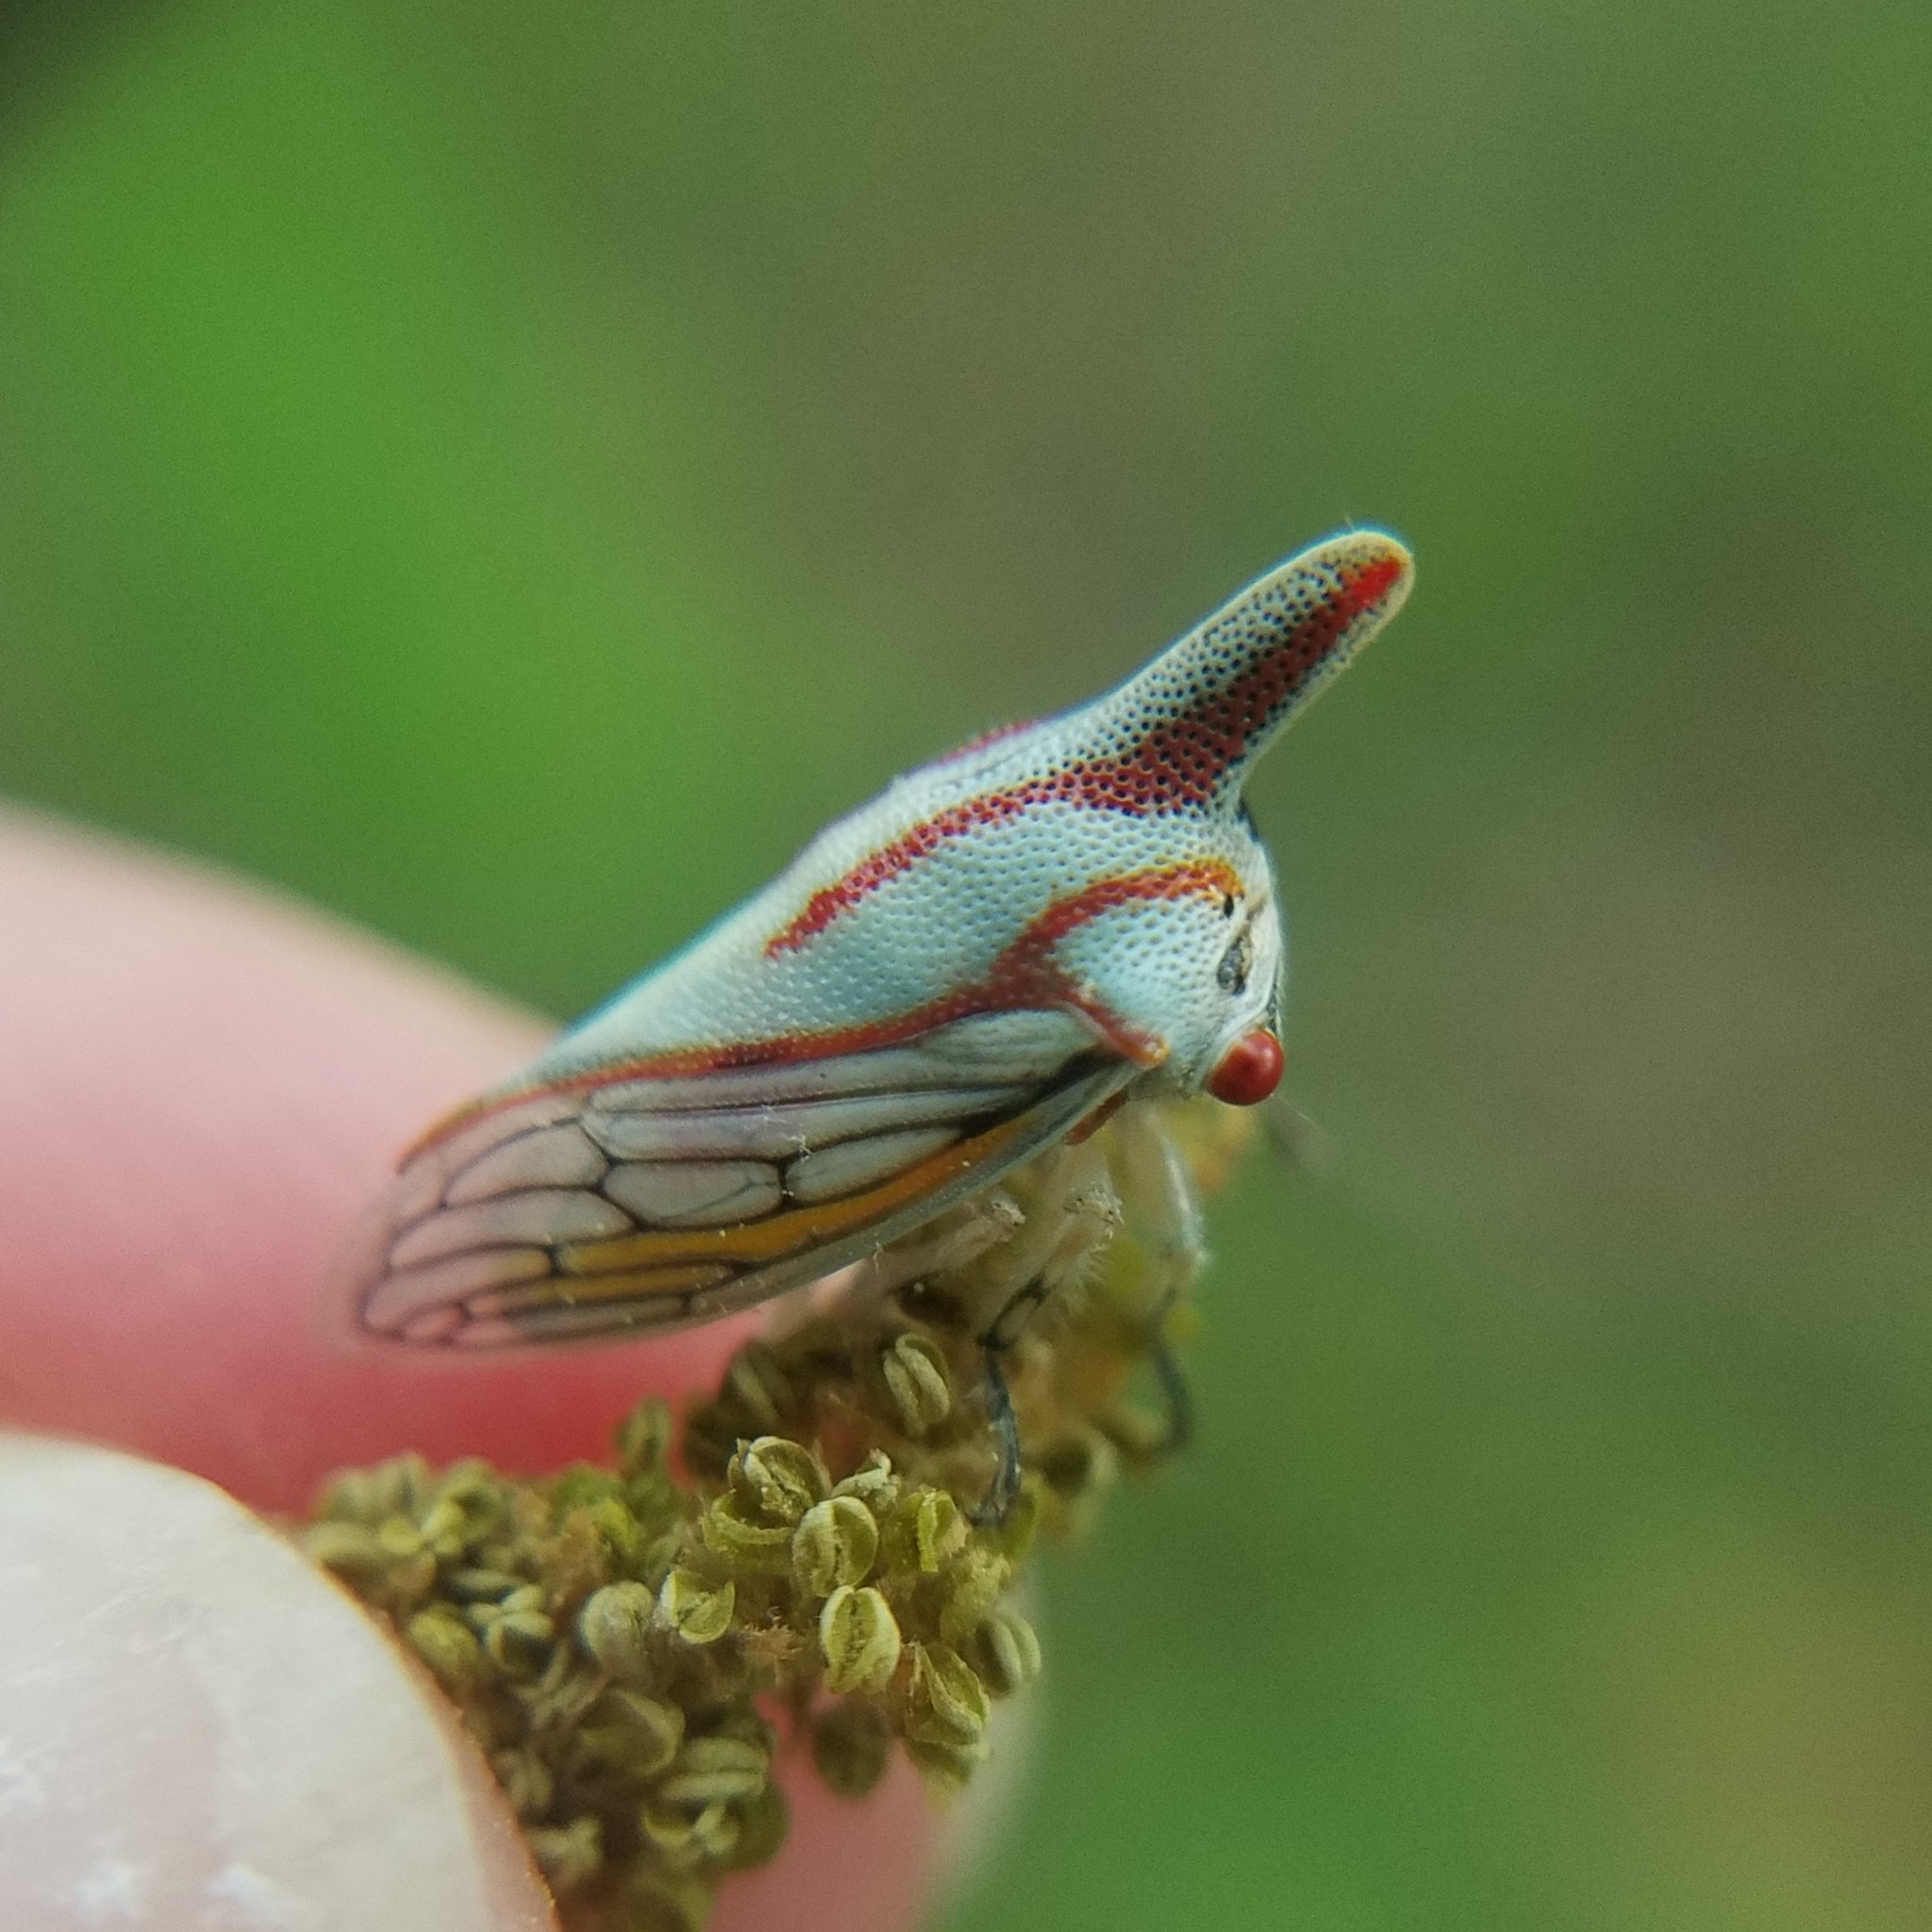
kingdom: Animalia
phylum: Arthropoda
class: Insecta
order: Hemiptera
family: Membracidae
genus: Platycotis
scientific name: Platycotis vittatus
